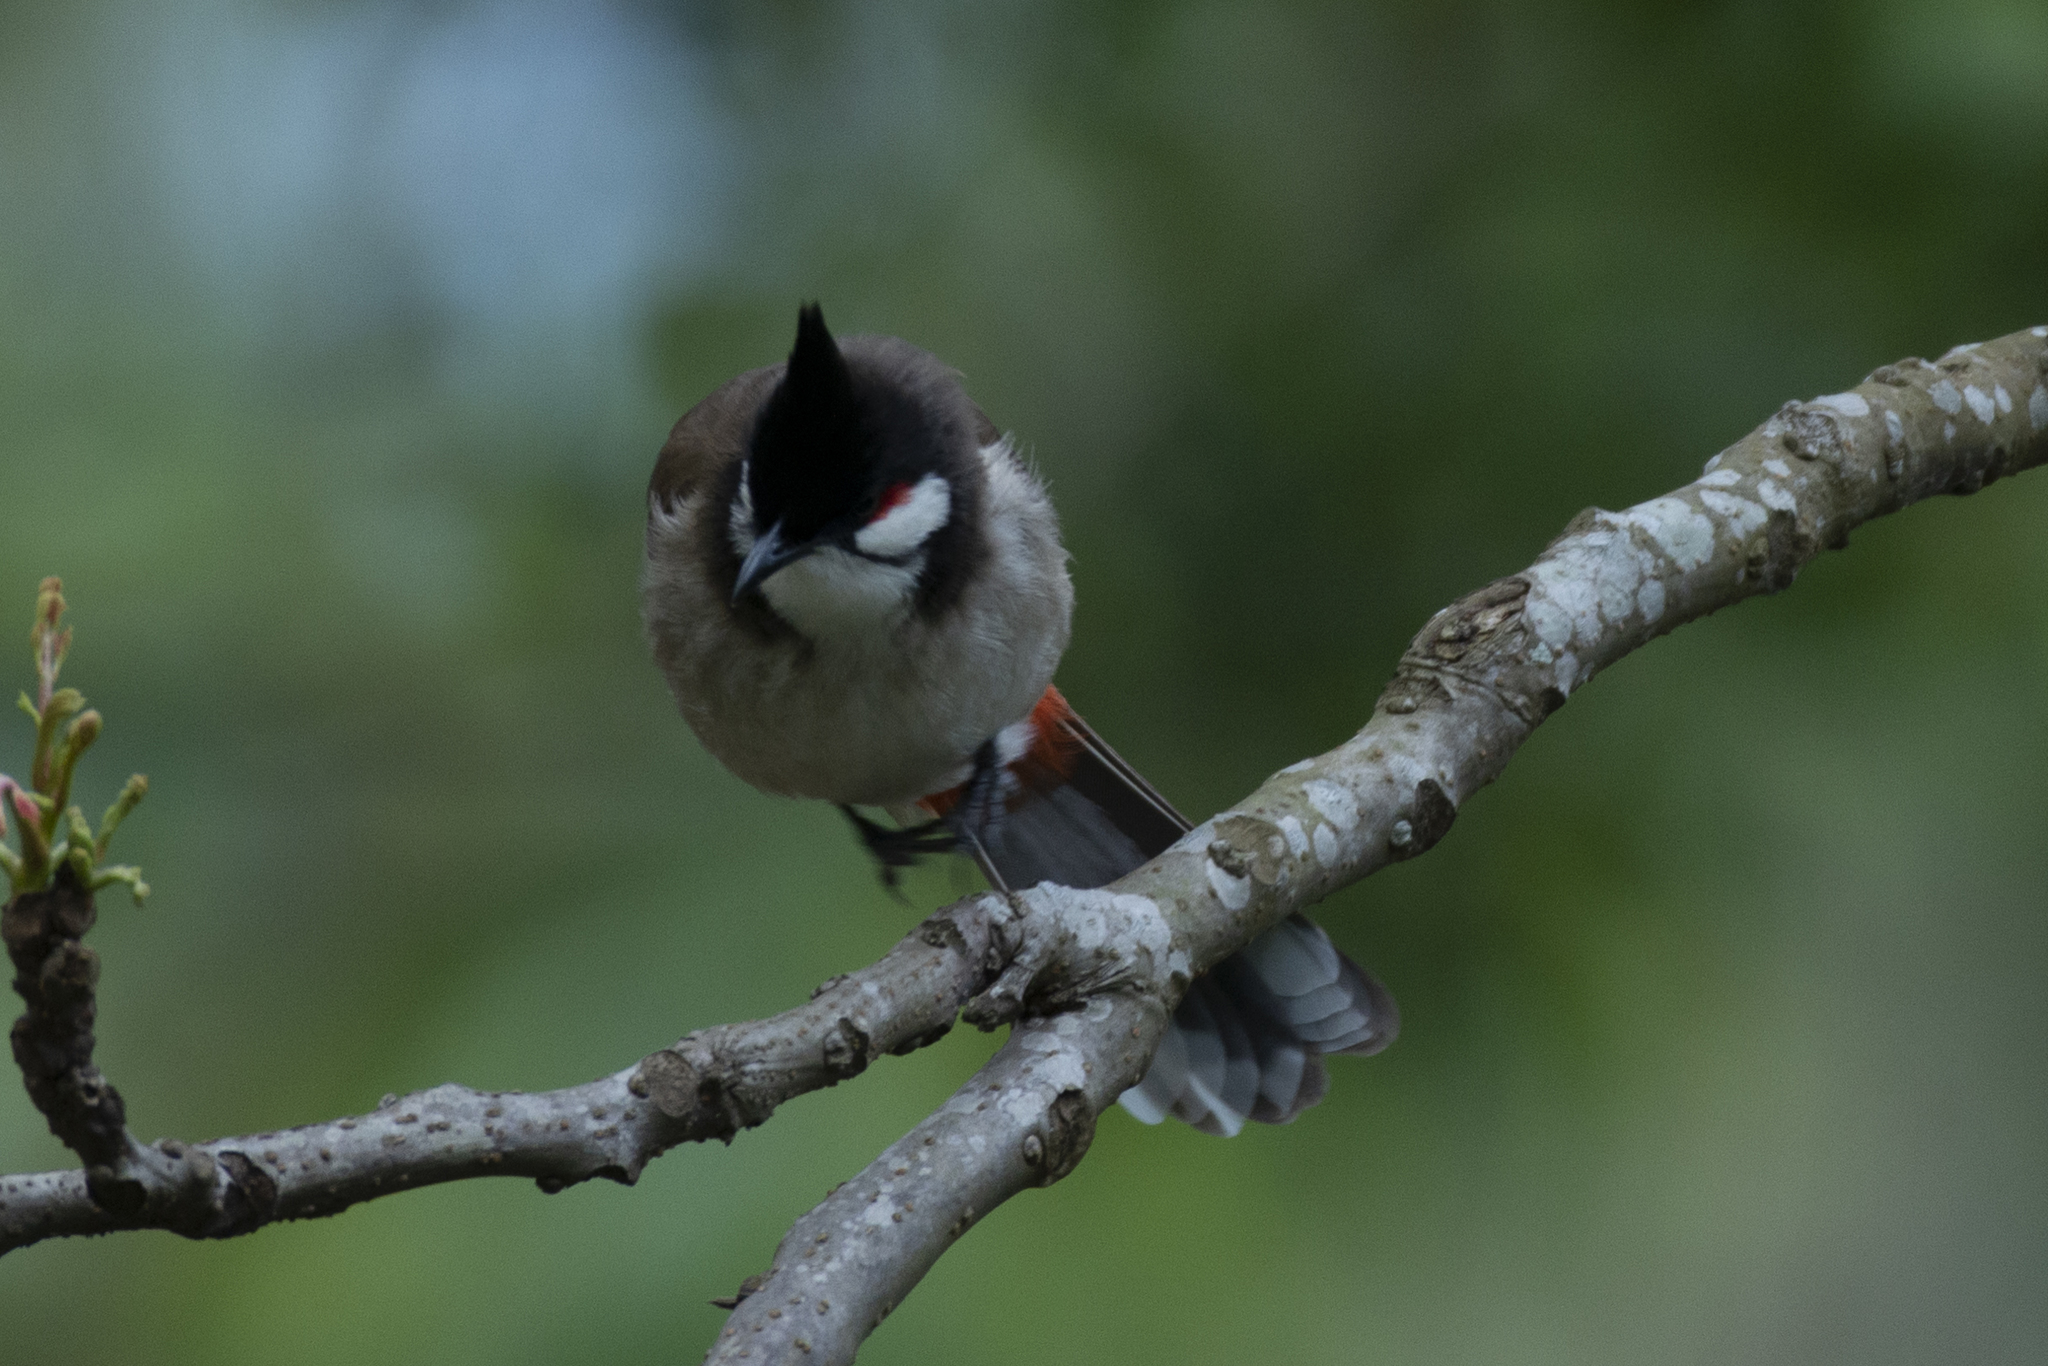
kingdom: Animalia
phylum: Chordata
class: Aves
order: Passeriformes
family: Pycnonotidae
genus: Pycnonotus
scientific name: Pycnonotus jocosus
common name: Red-whiskered bulbul
